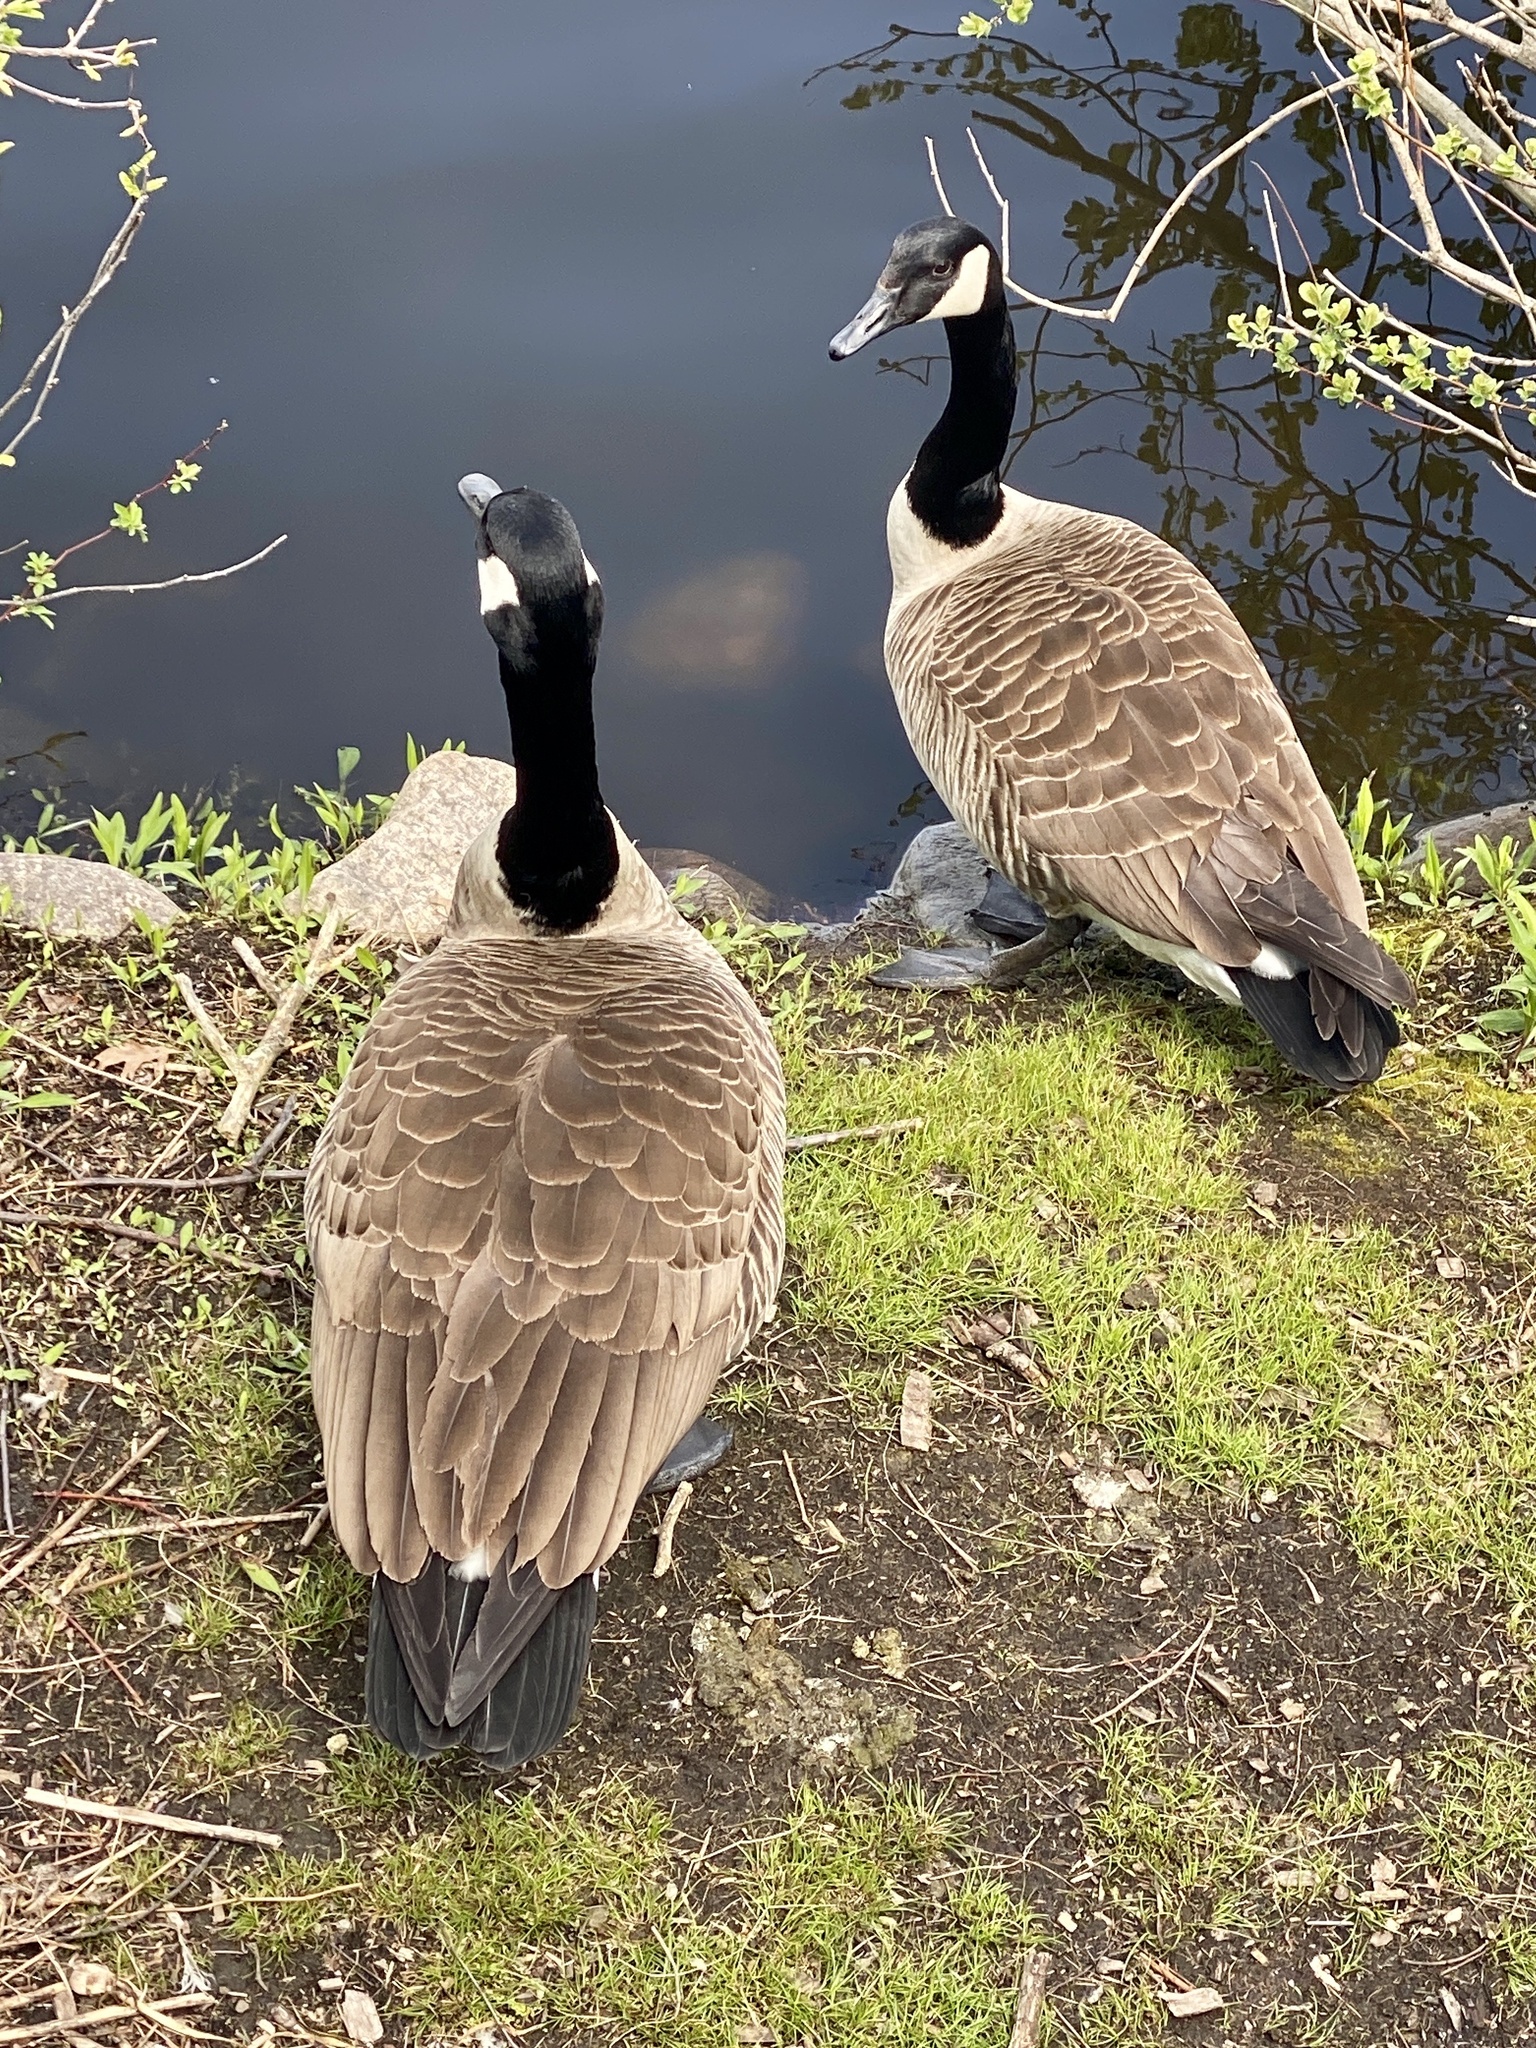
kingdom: Animalia
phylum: Chordata
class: Aves
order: Anseriformes
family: Anatidae
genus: Branta
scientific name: Branta canadensis
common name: Canada goose
